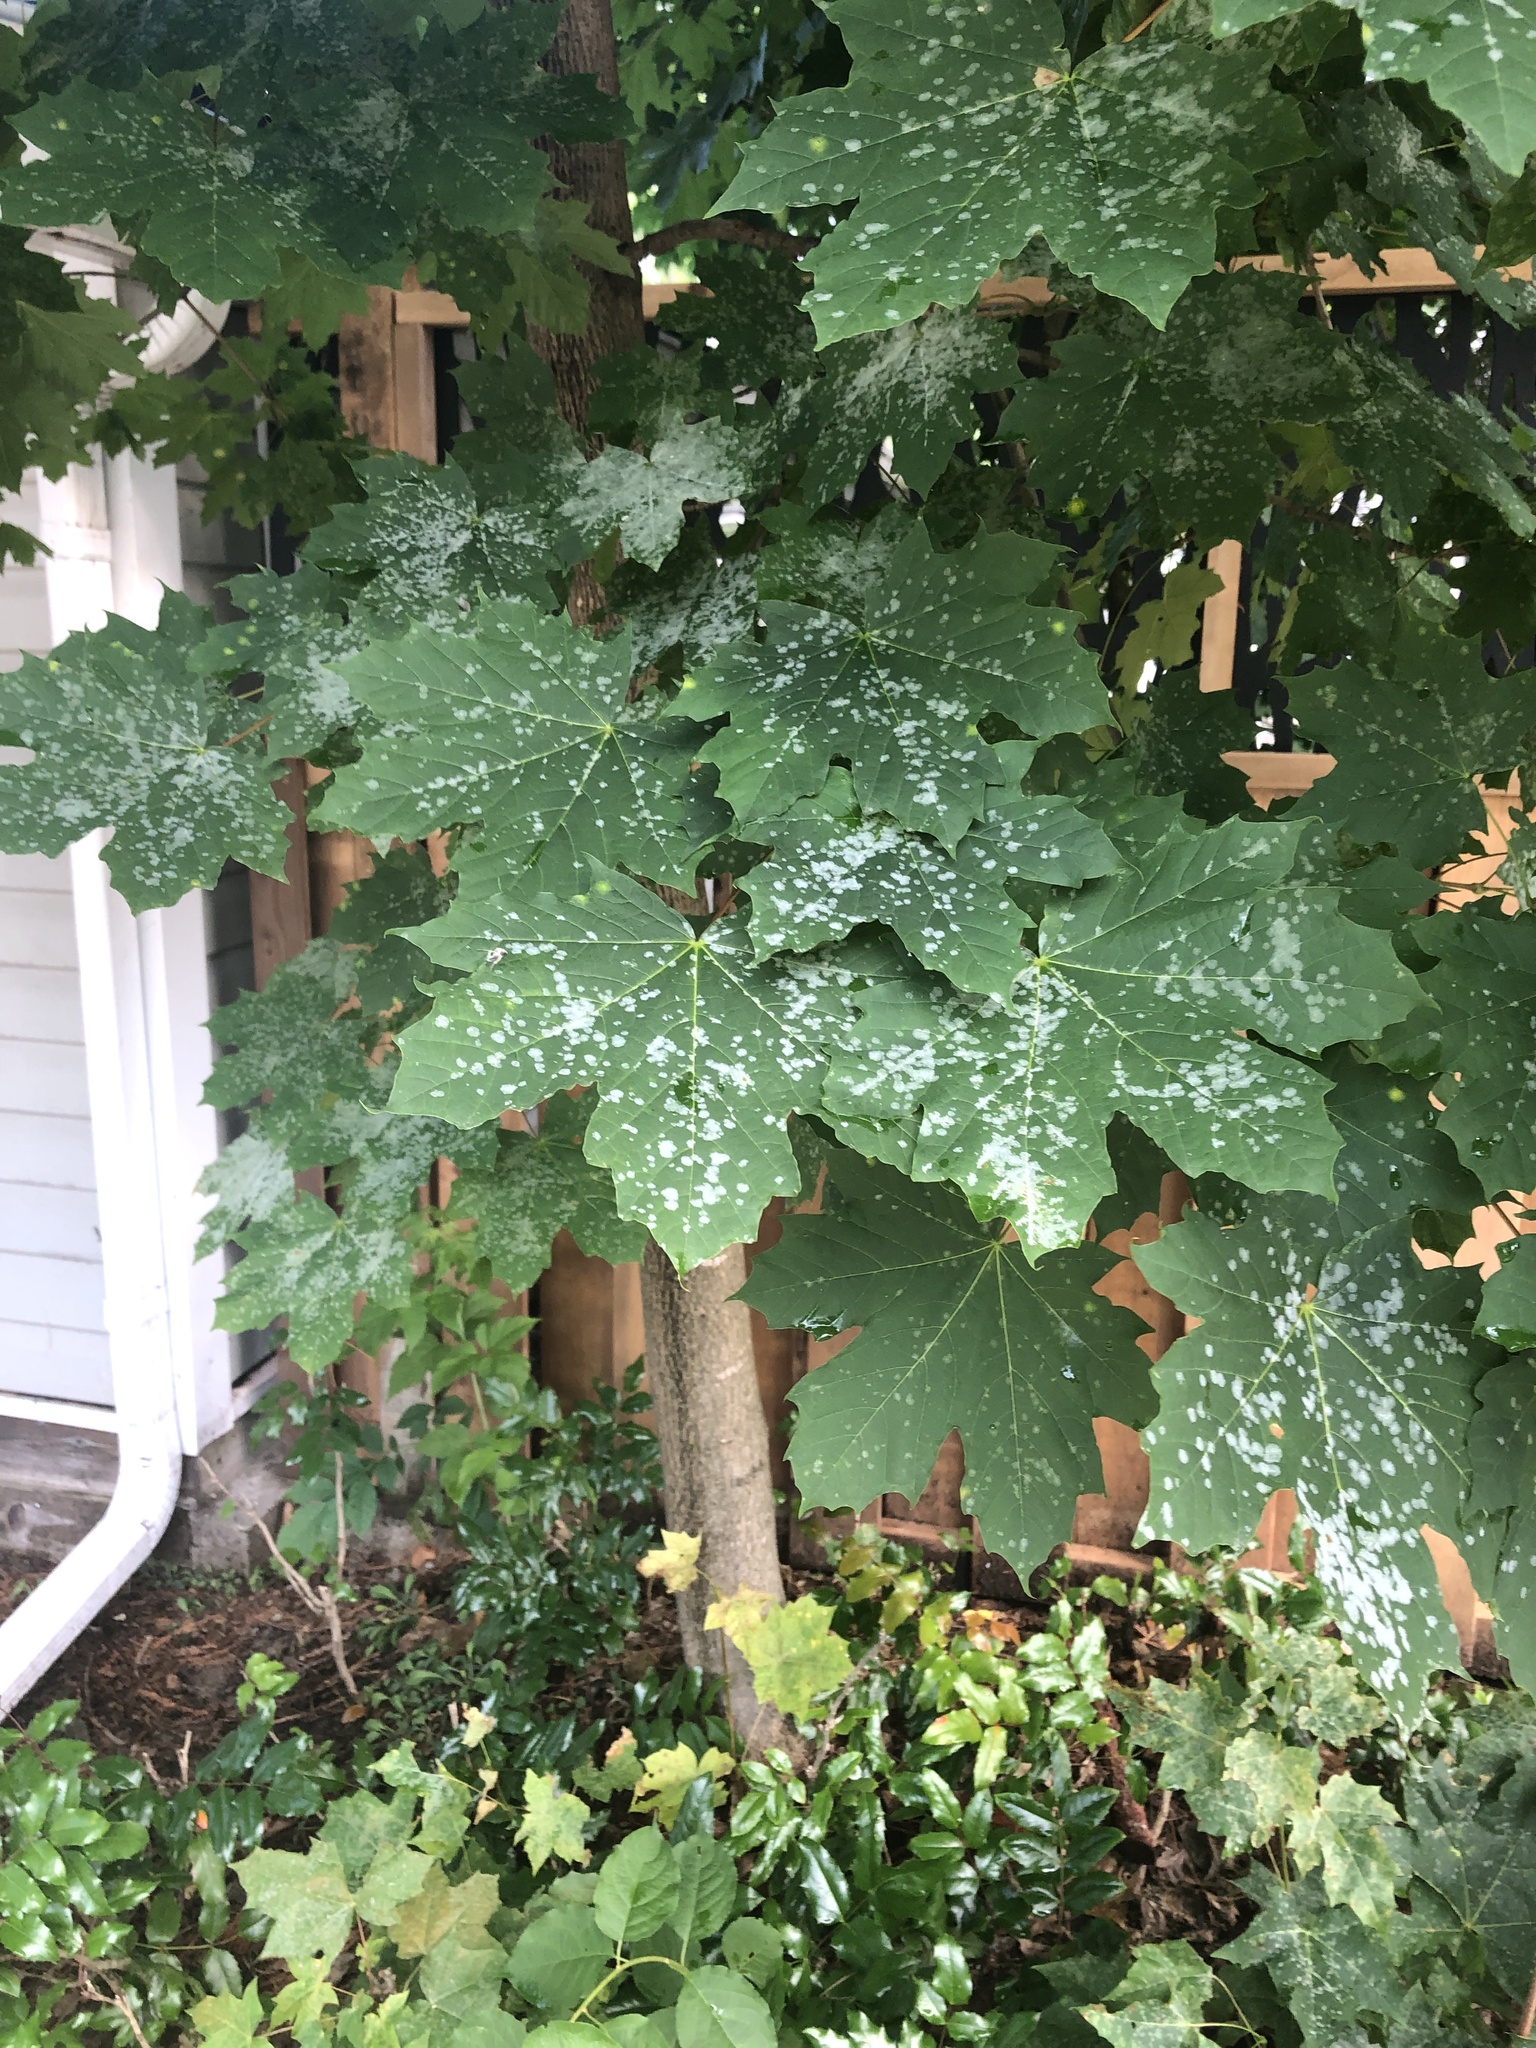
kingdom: Plantae
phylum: Tracheophyta
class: Magnoliopsida
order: Sapindales
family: Sapindaceae
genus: Acer
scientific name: Acer platanoides
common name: Norway maple
